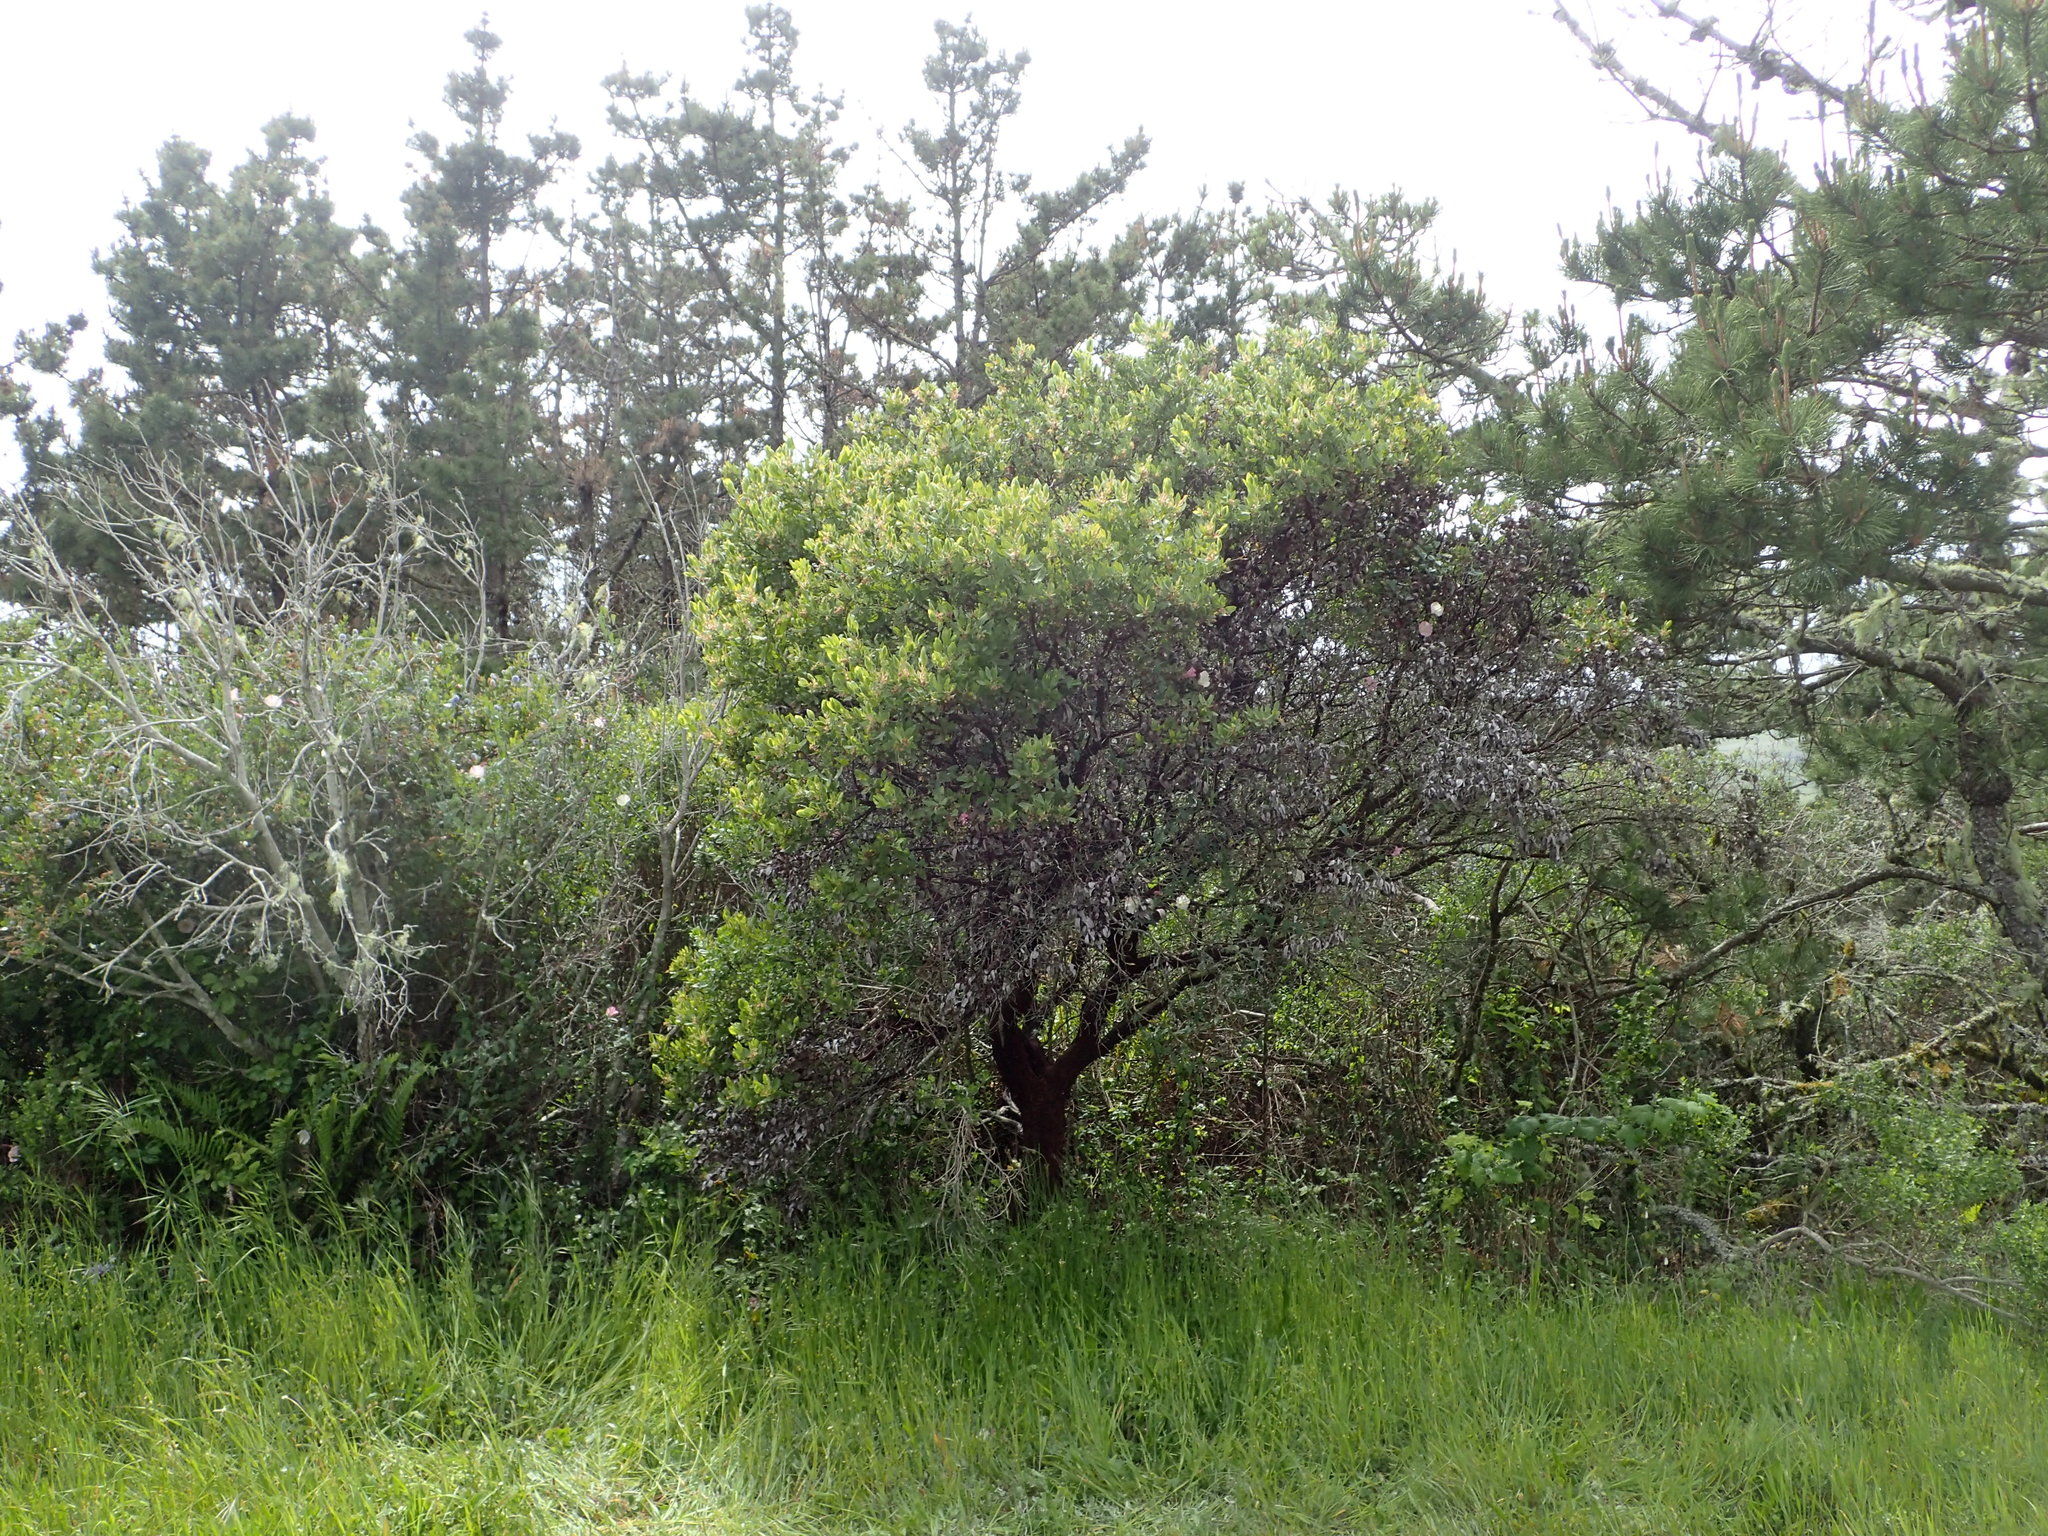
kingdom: Plantae
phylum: Tracheophyta
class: Magnoliopsida
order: Ericales
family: Ericaceae
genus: Arctostaphylos
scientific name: Arctostaphylos virgata
